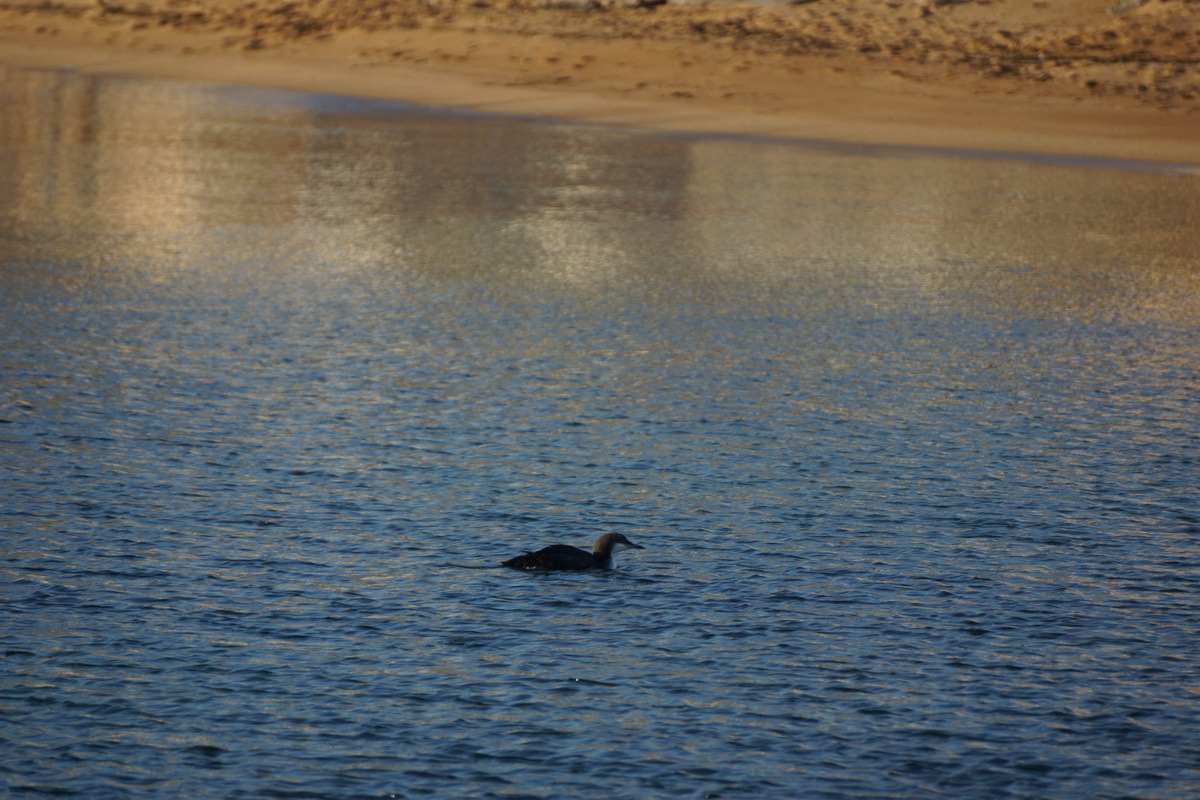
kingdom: Animalia
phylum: Chordata
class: Aves
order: Gaviiformes
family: Gaviidae
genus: Gavia
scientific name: Gavia arctica
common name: Black-throated loon
